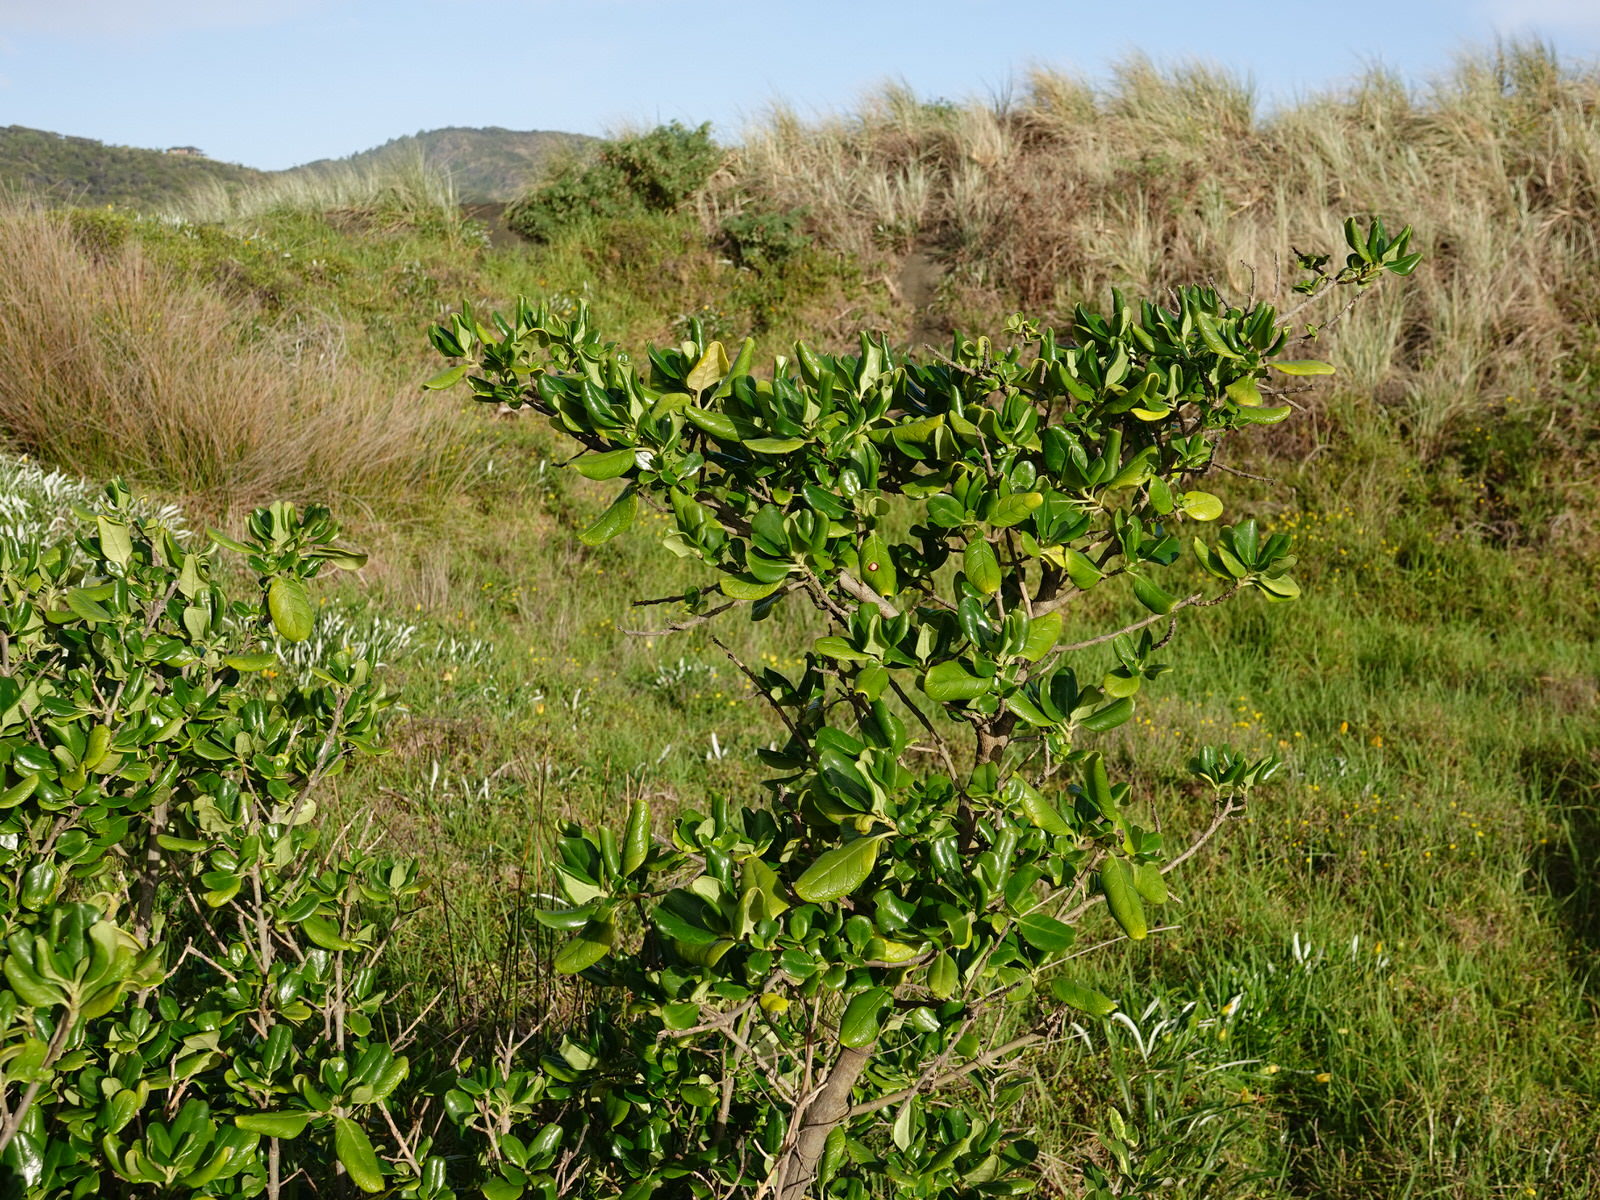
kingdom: Plantae
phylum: Tracheophyta
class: Magnoliopsida
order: Gentianales
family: Rubiaceae
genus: Coprosma
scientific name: Coprosma repens
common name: Tree bedstraw
